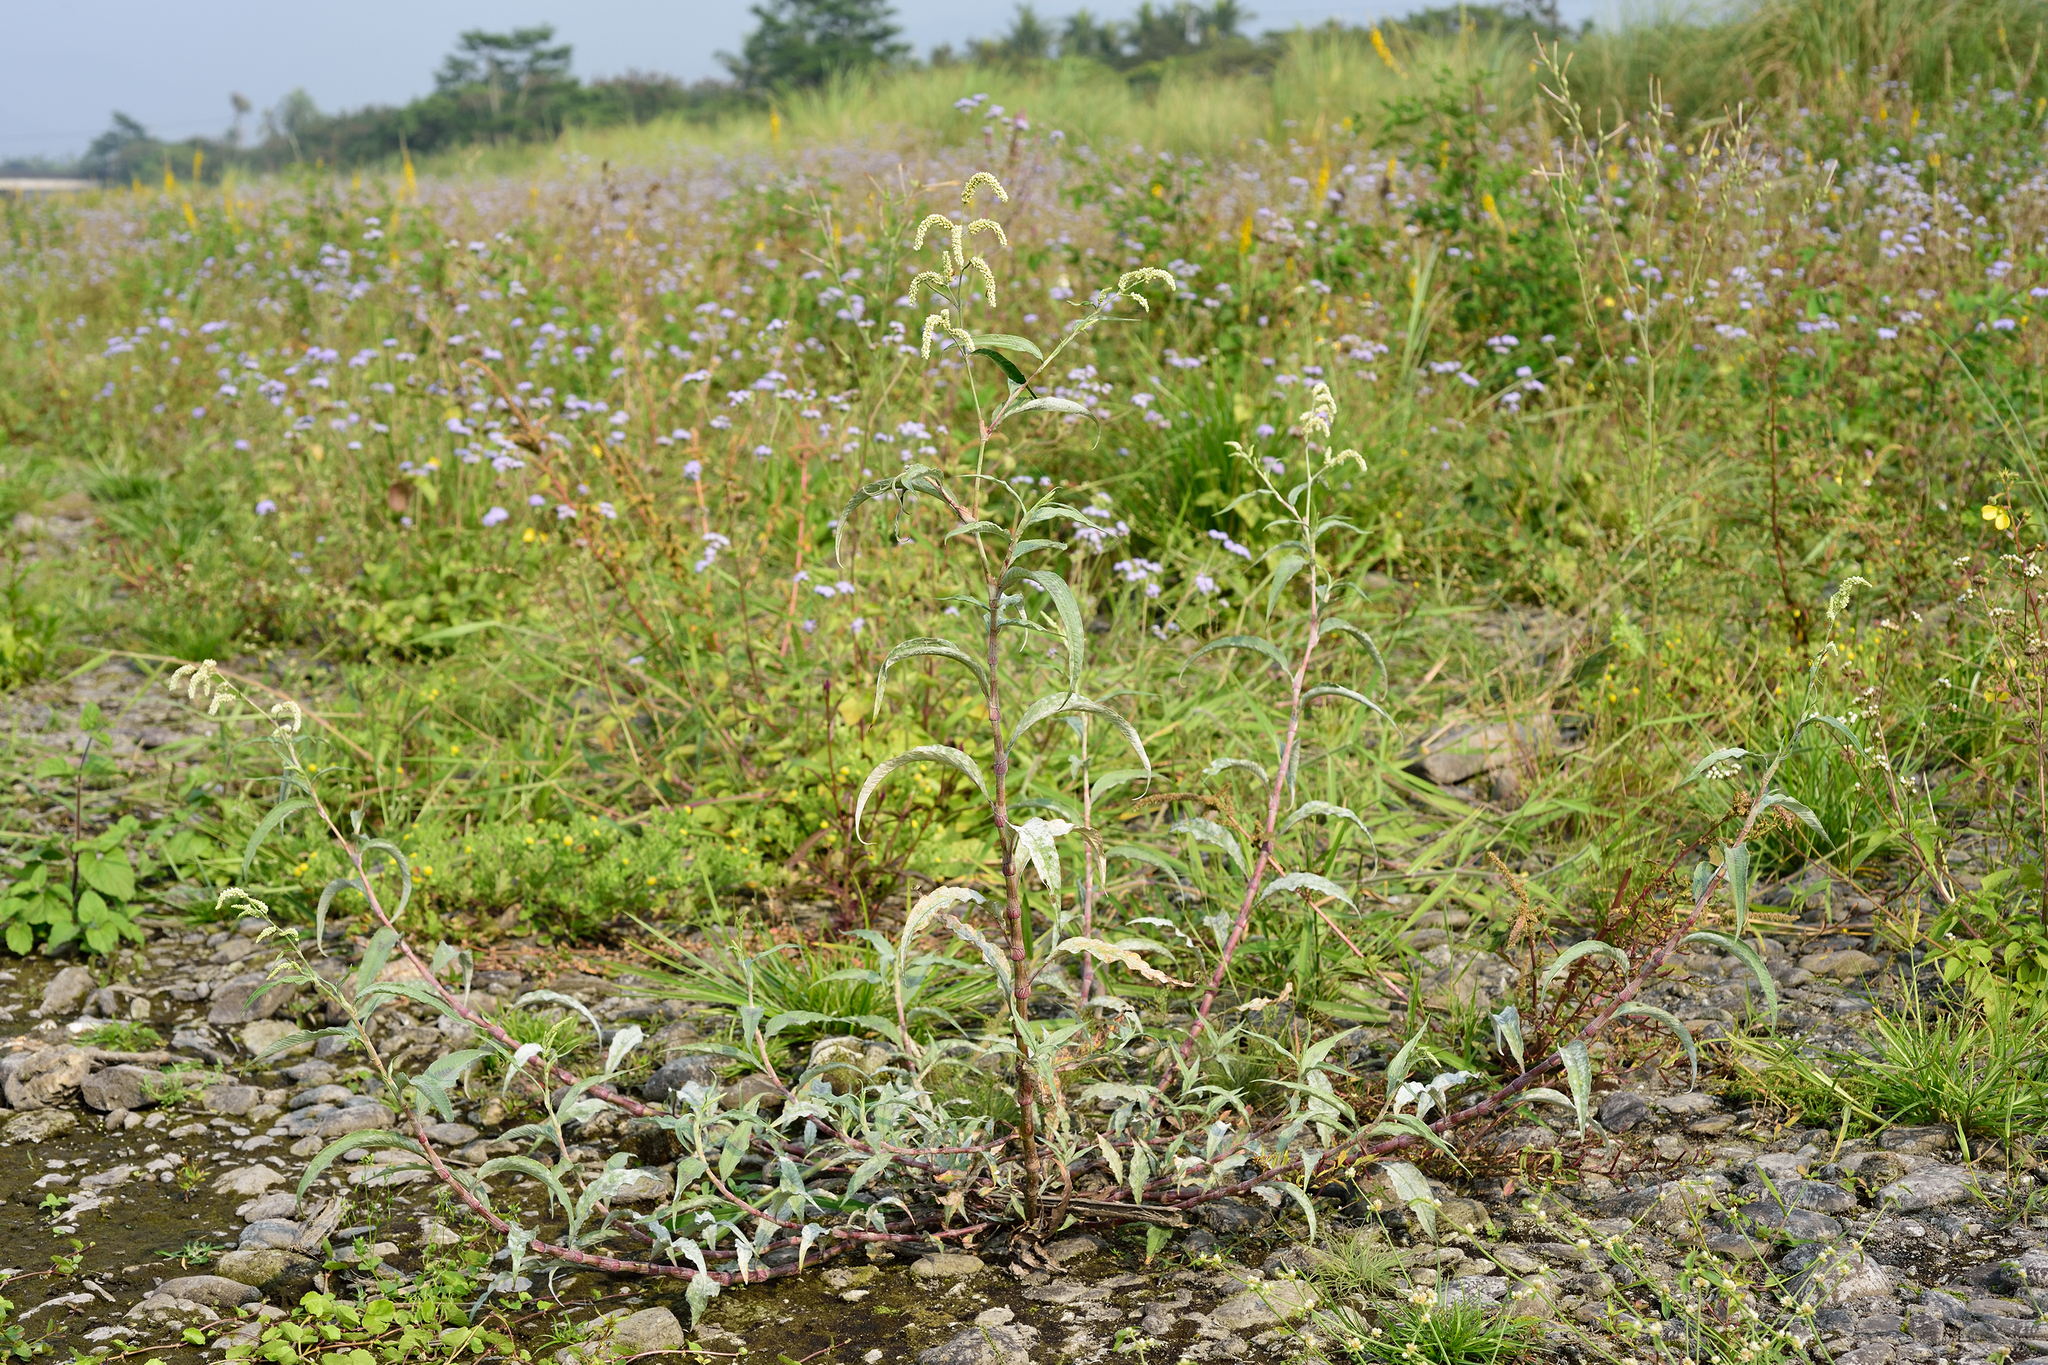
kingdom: Plantae
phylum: Tracheophyta
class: Magnoliopsida
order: Caryophyllales
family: Polygonaceae
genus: Persicaria
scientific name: Persicaria lanata
